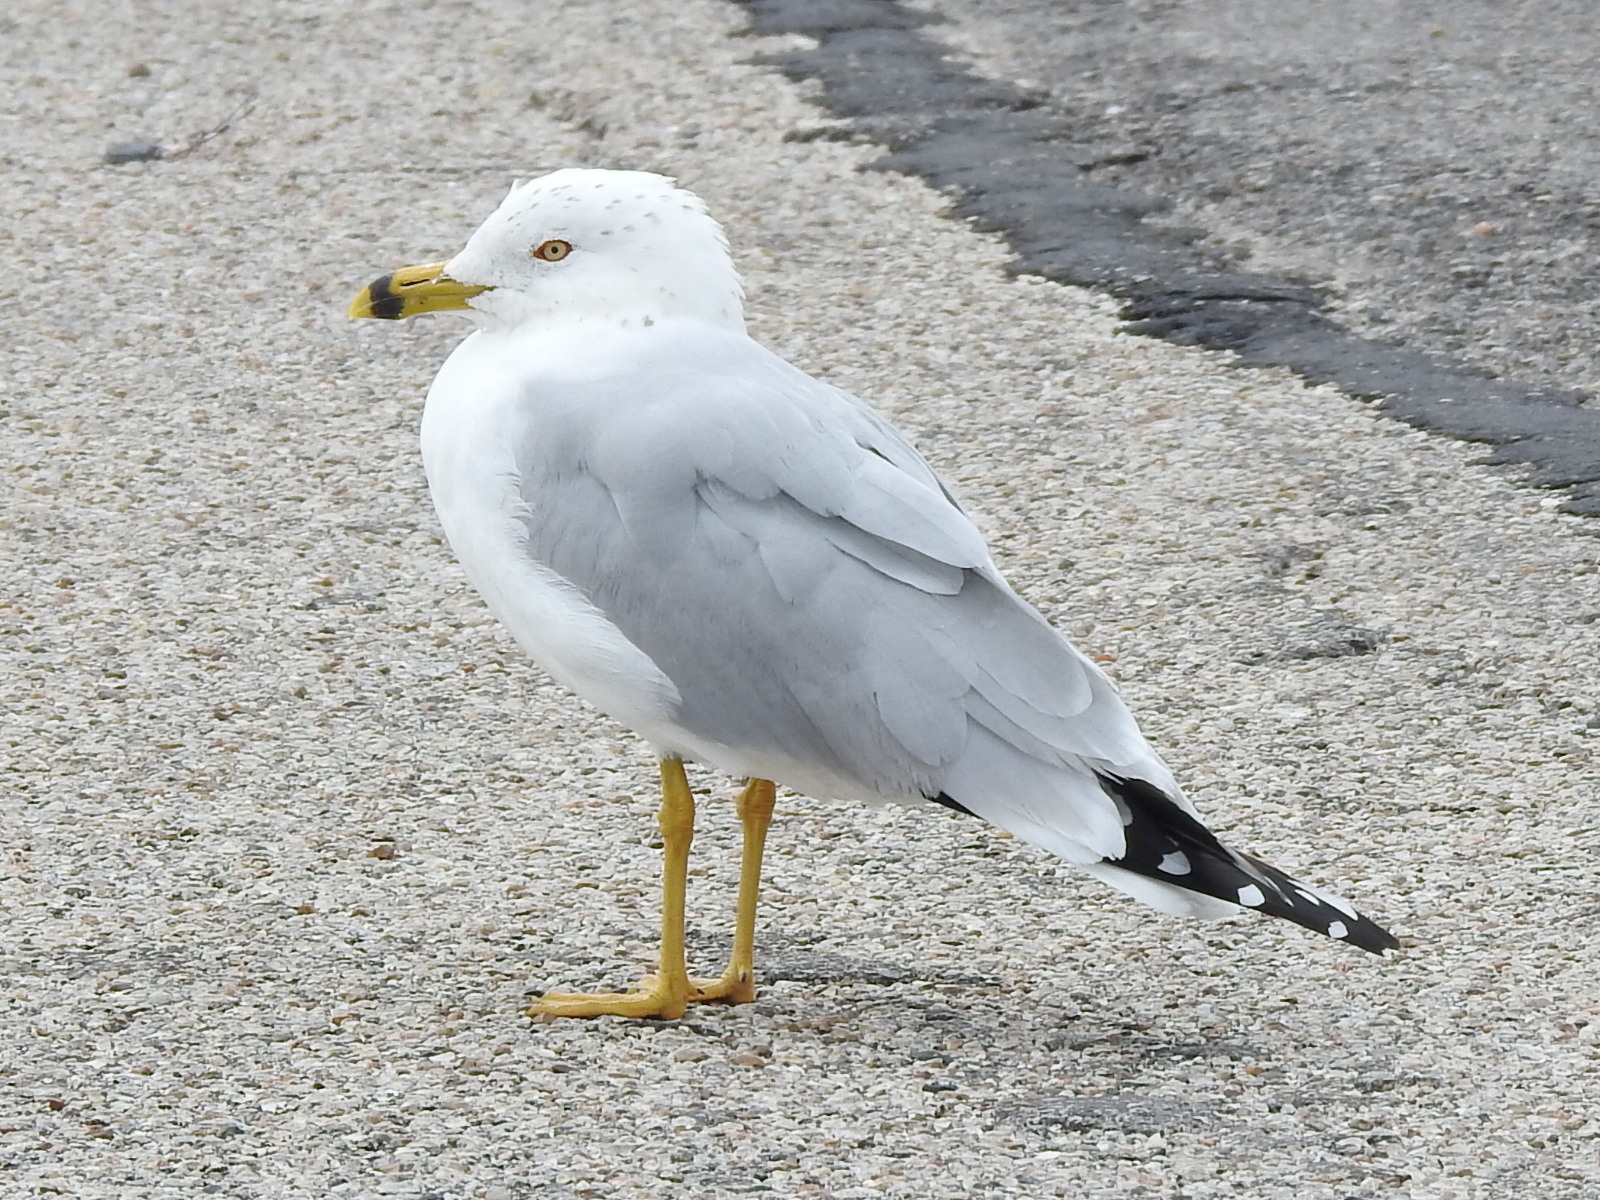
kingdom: Animalia
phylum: Chordata
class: Aves
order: Charadriiformes
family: Laridae
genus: Larus
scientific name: Larus delawarensis
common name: Ring-billed gull
